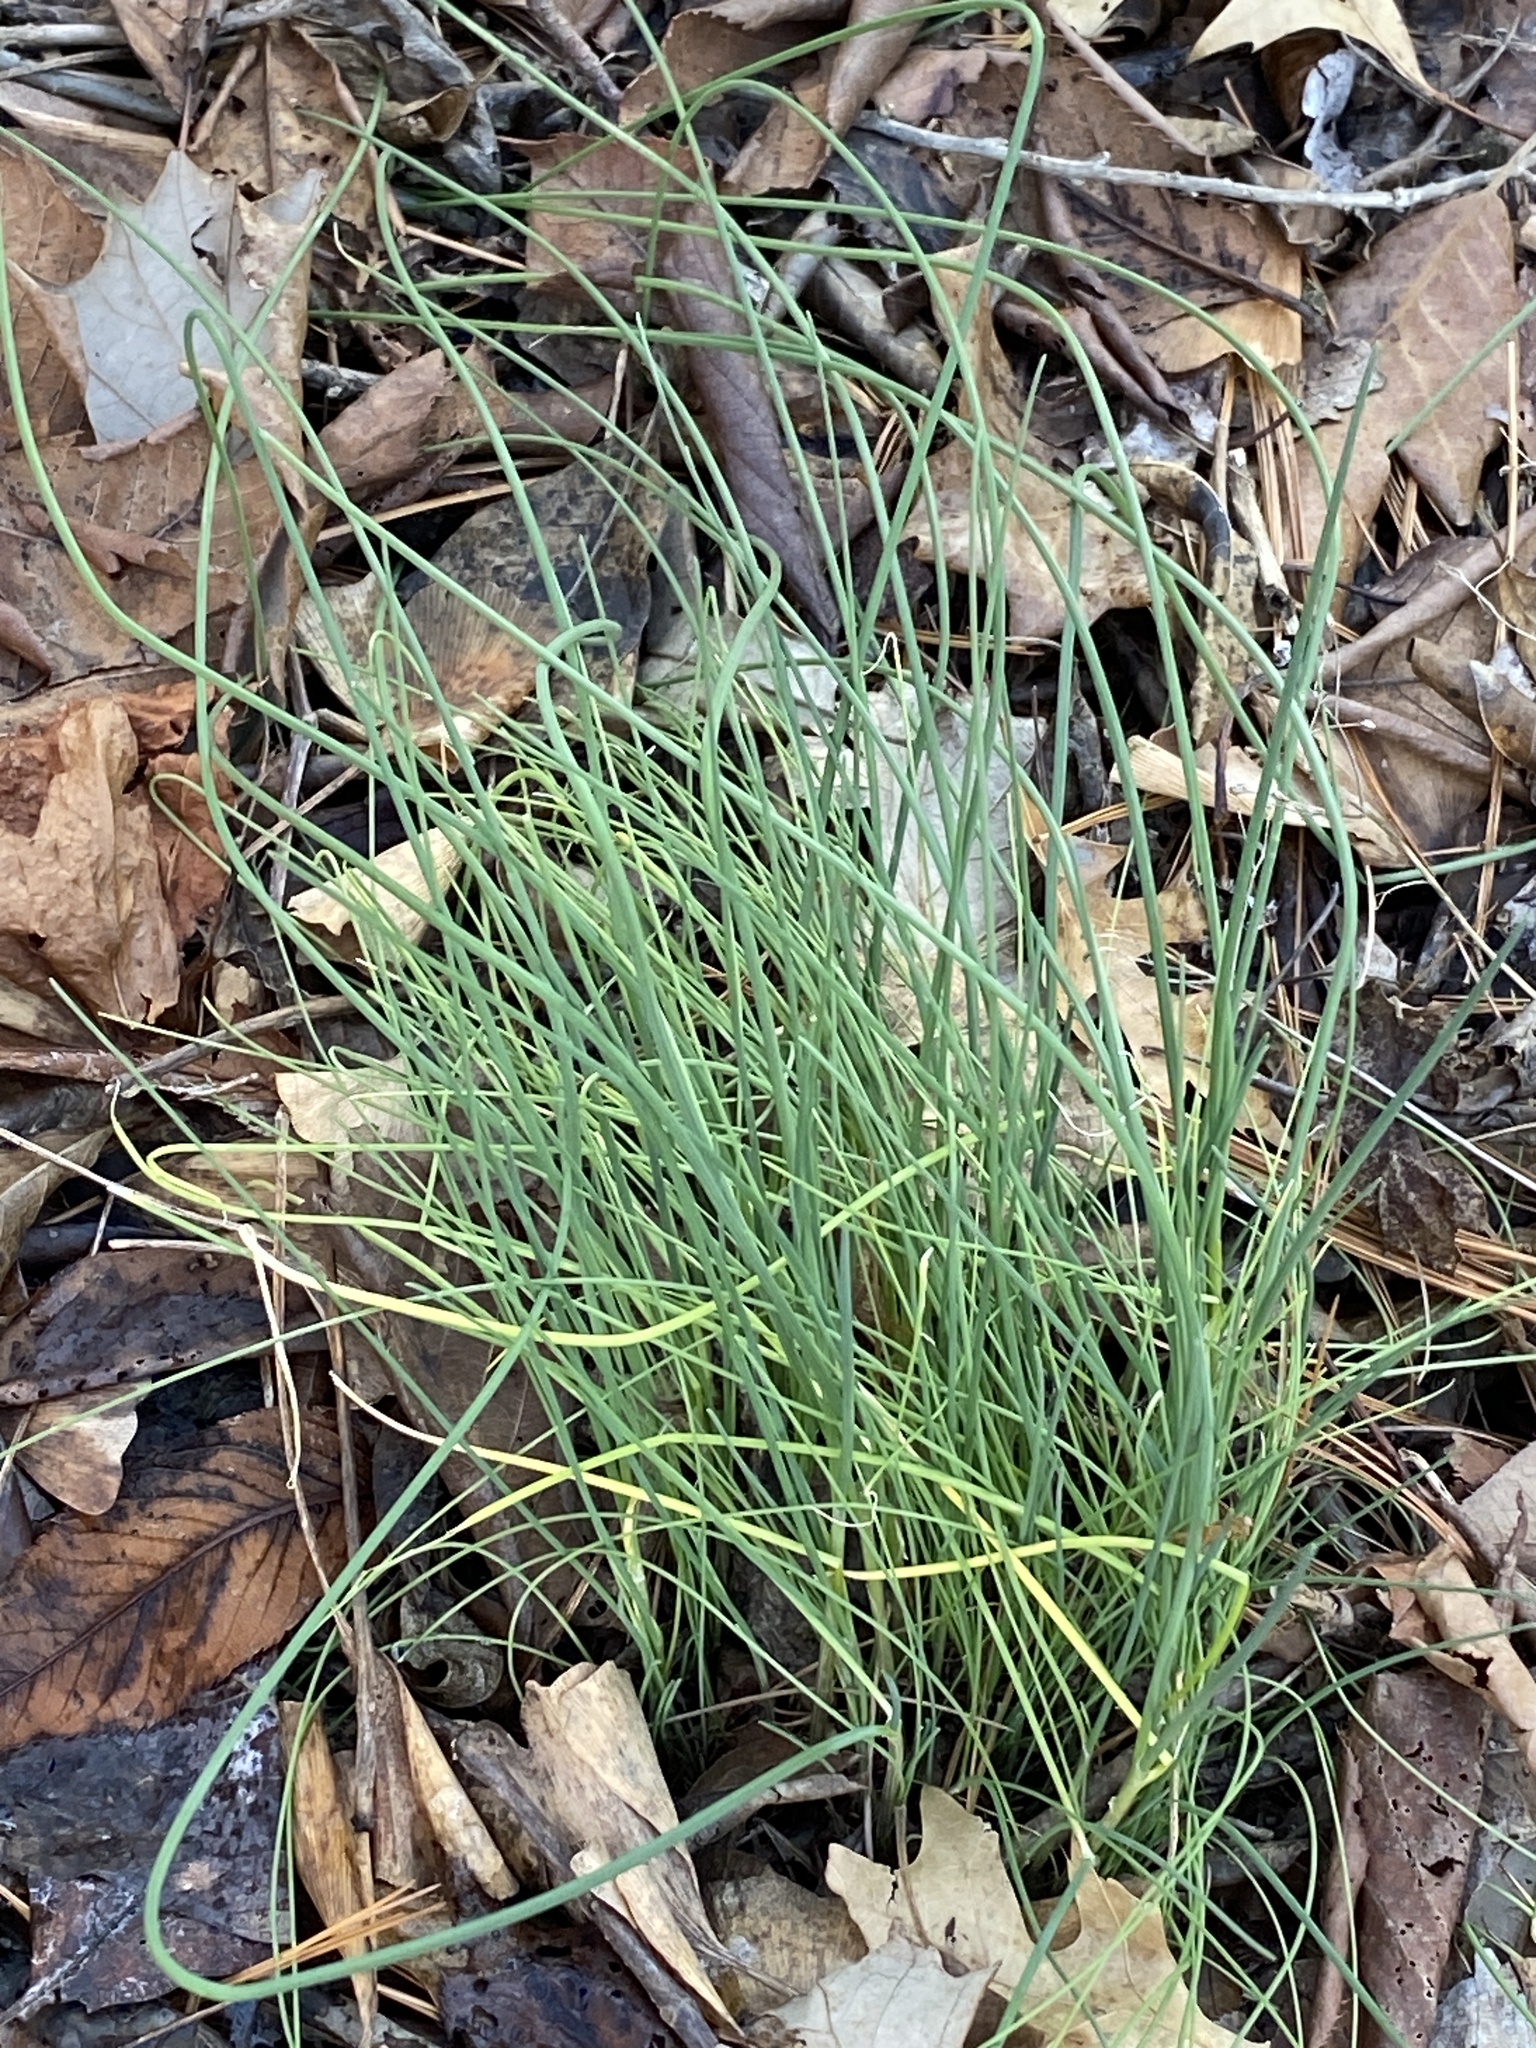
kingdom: Plantae
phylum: Tracheophyta
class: Liliopsida
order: Asparagales
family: Amaryllidaceae
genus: Allium
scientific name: Allium vineale
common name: Crow garlic
